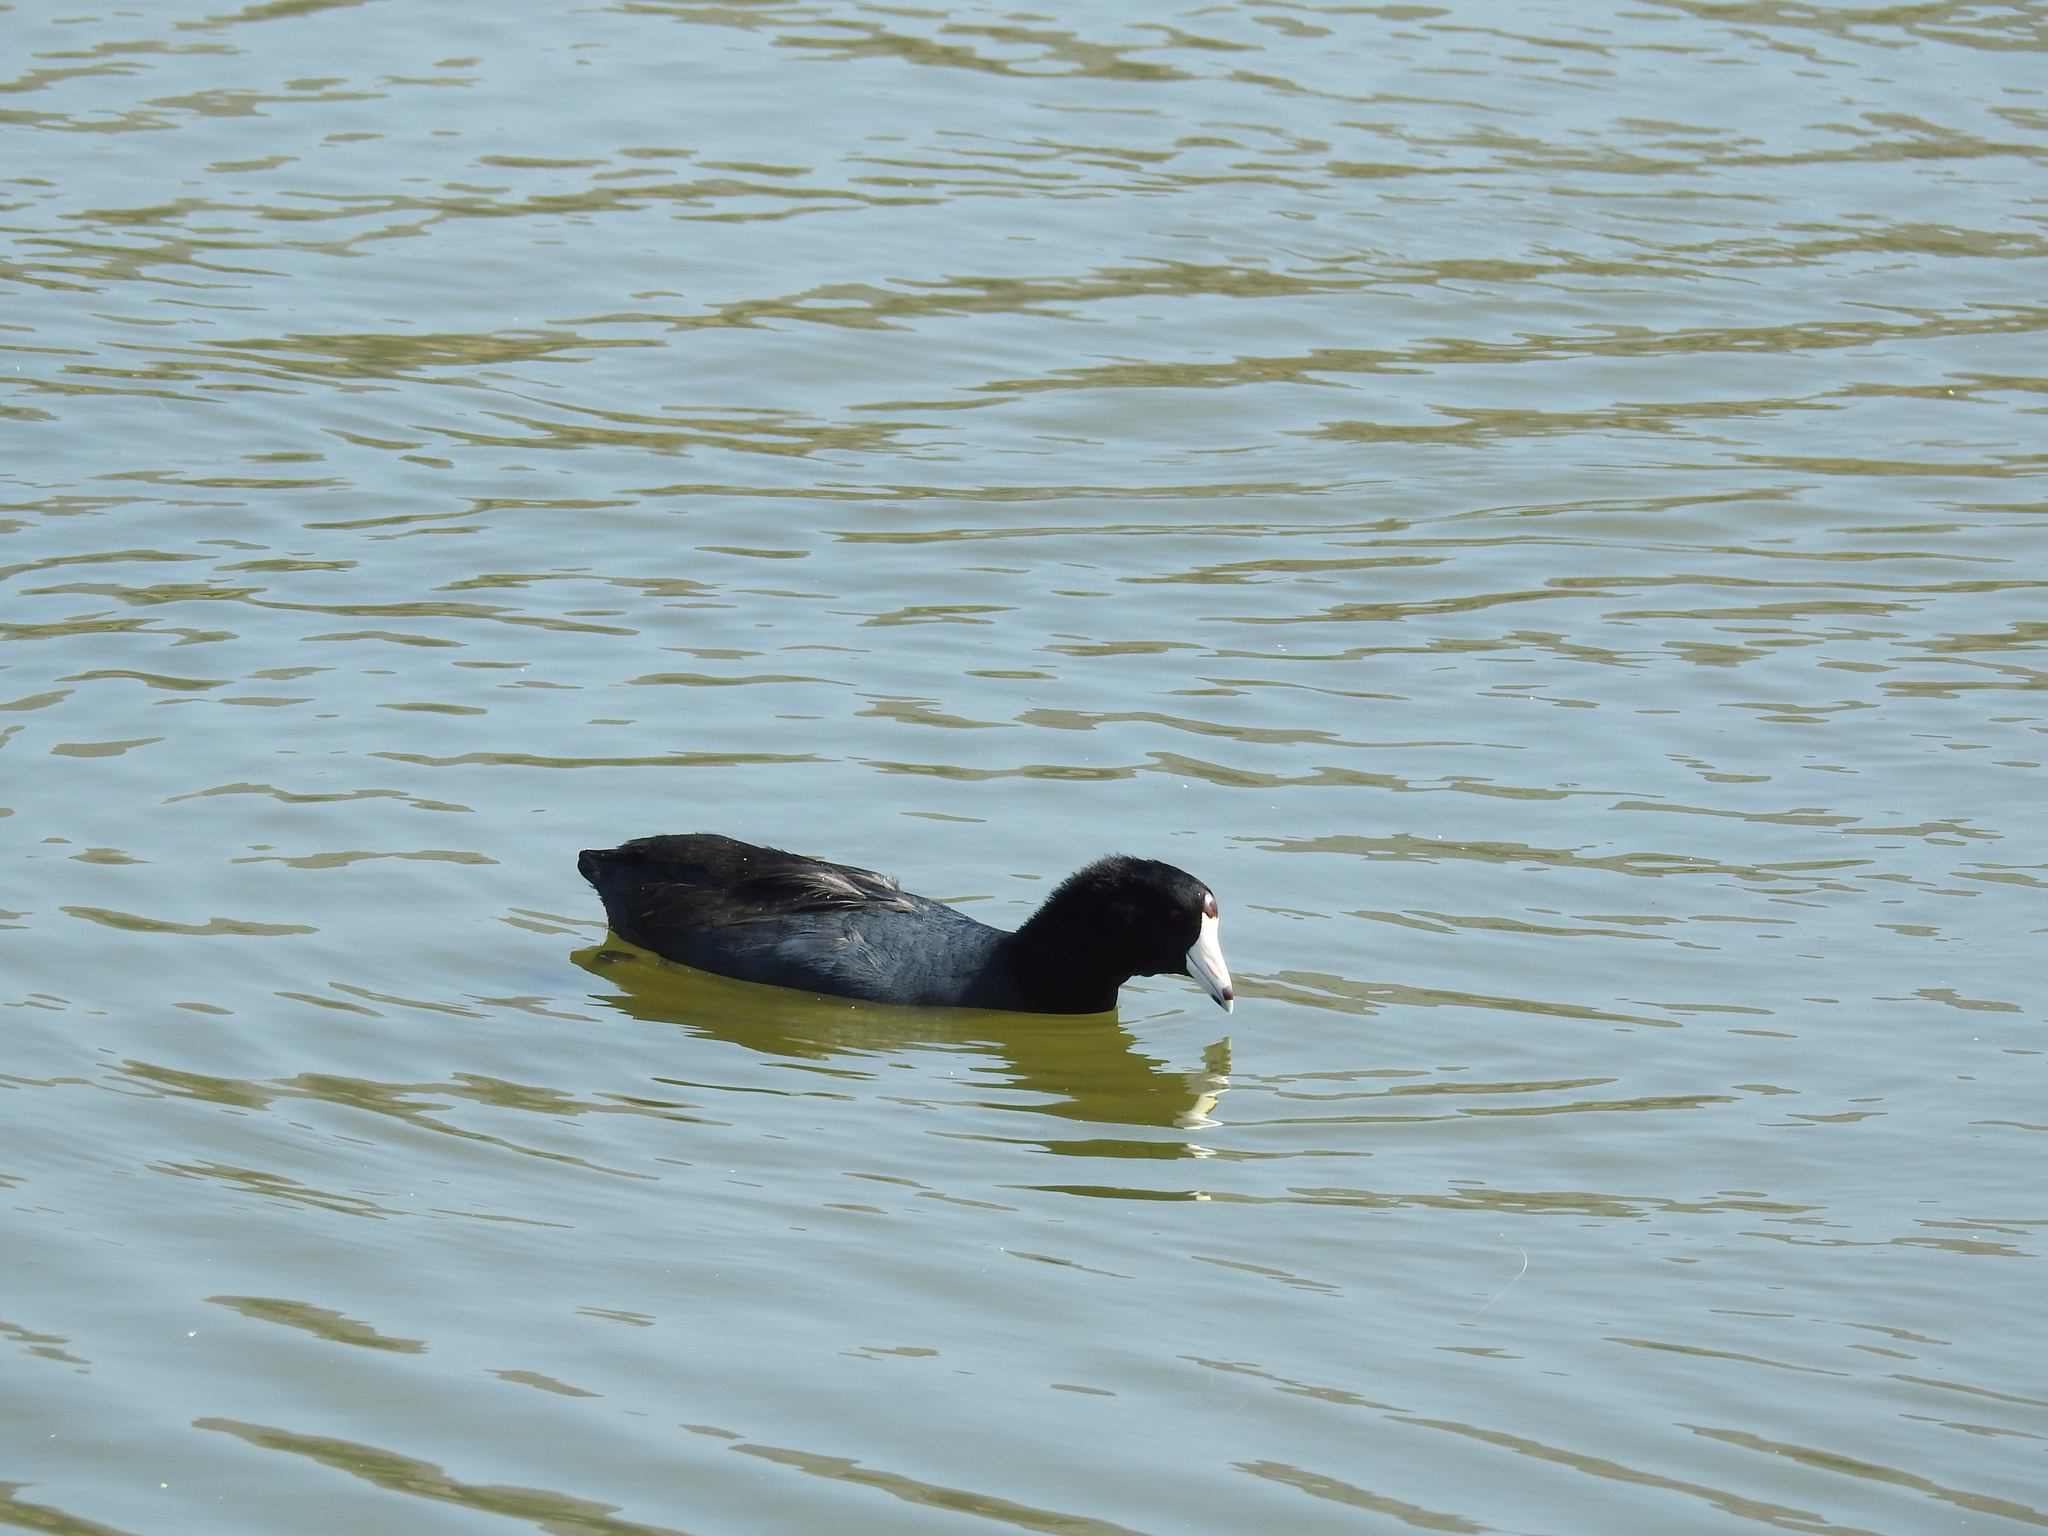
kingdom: Animalia
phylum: Chordata
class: Aves
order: Gruiformes
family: Rallidae
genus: Fulica
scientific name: Fulica americana
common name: American coot
